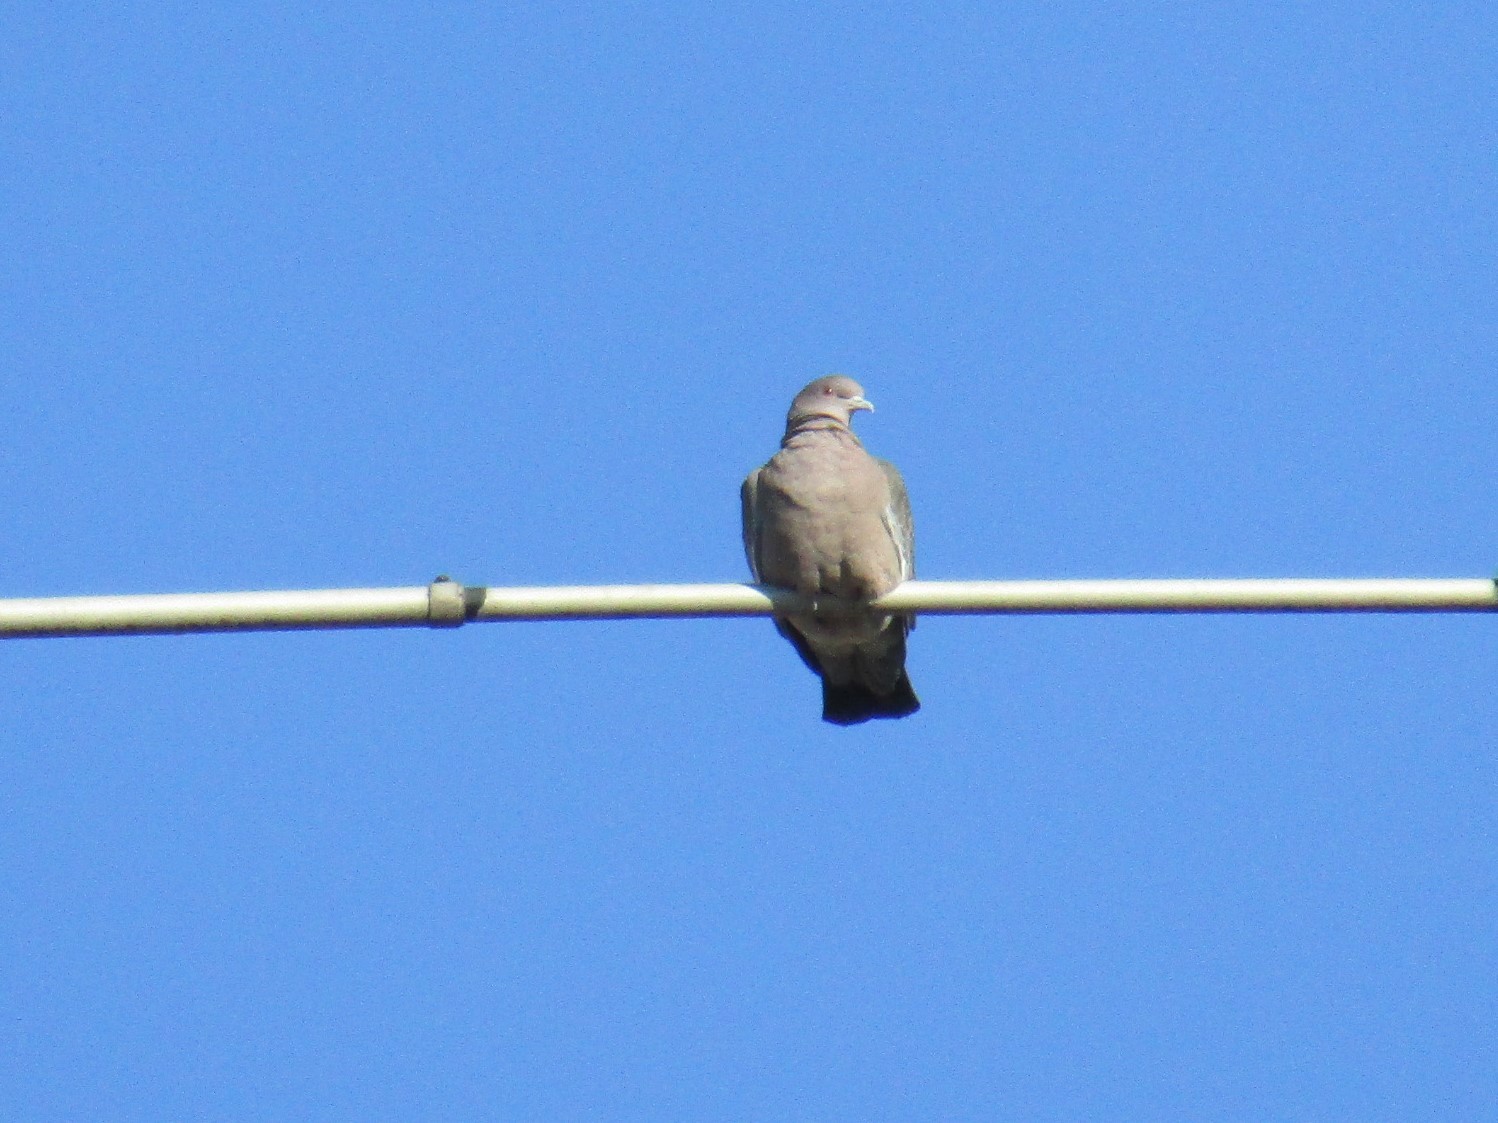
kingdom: Animalia
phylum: Chordata
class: Aves
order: Columbiformes
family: Columbidae
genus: Patagioenas
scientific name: Patagioenas picazuro
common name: Picazuro pigeon
